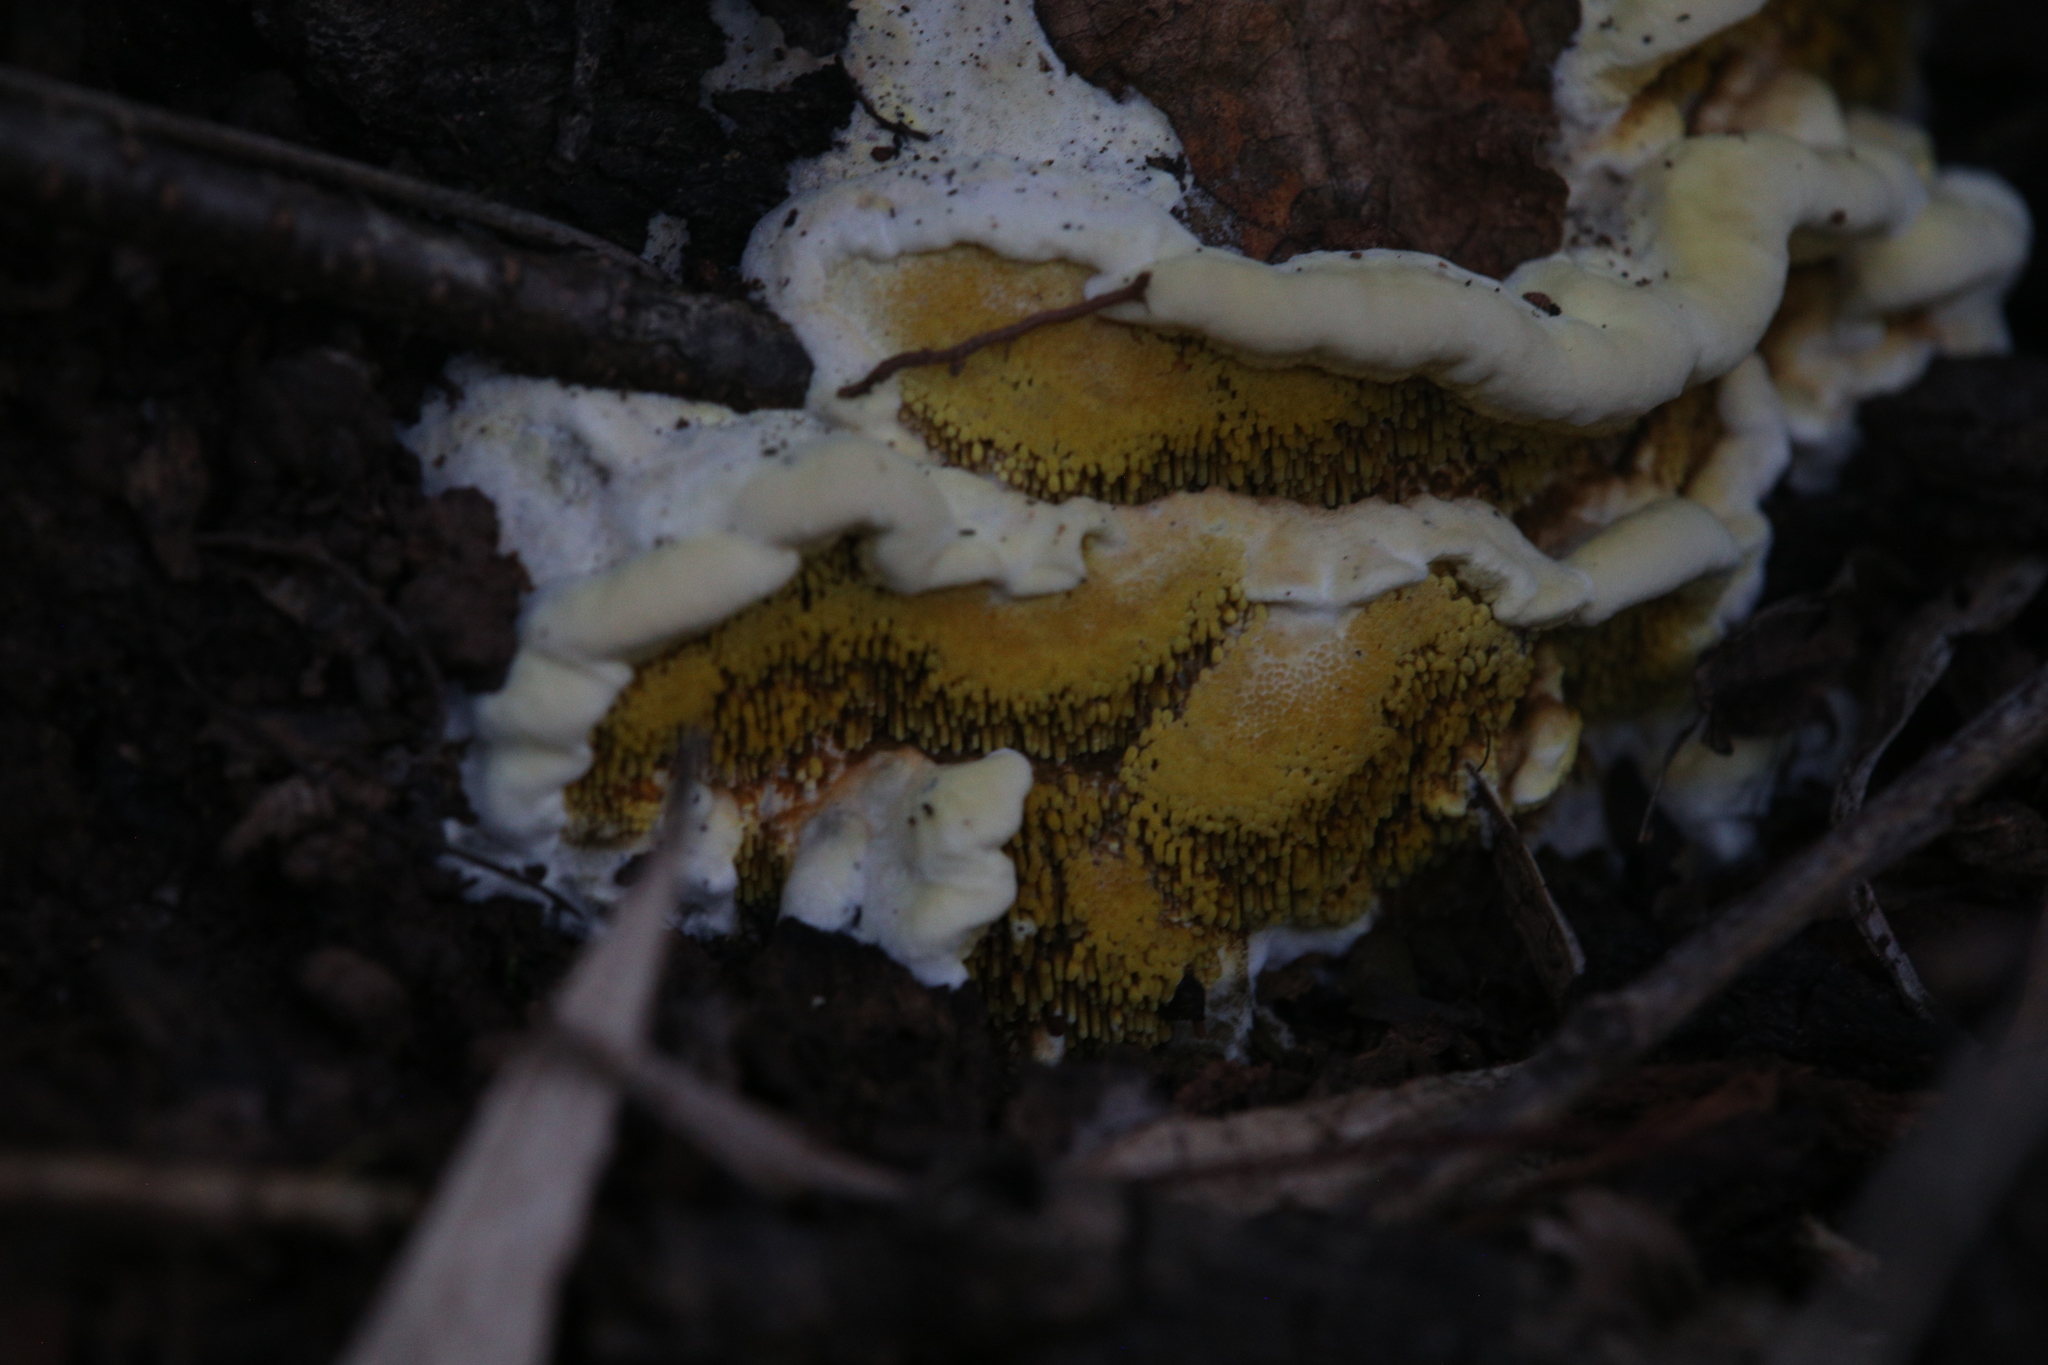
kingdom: Fungi
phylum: Basidiomycota
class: Agaricomycetes
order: Boletales
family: Coniophoraceae
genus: Gyrodontium
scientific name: Gyrodontium sacchari
